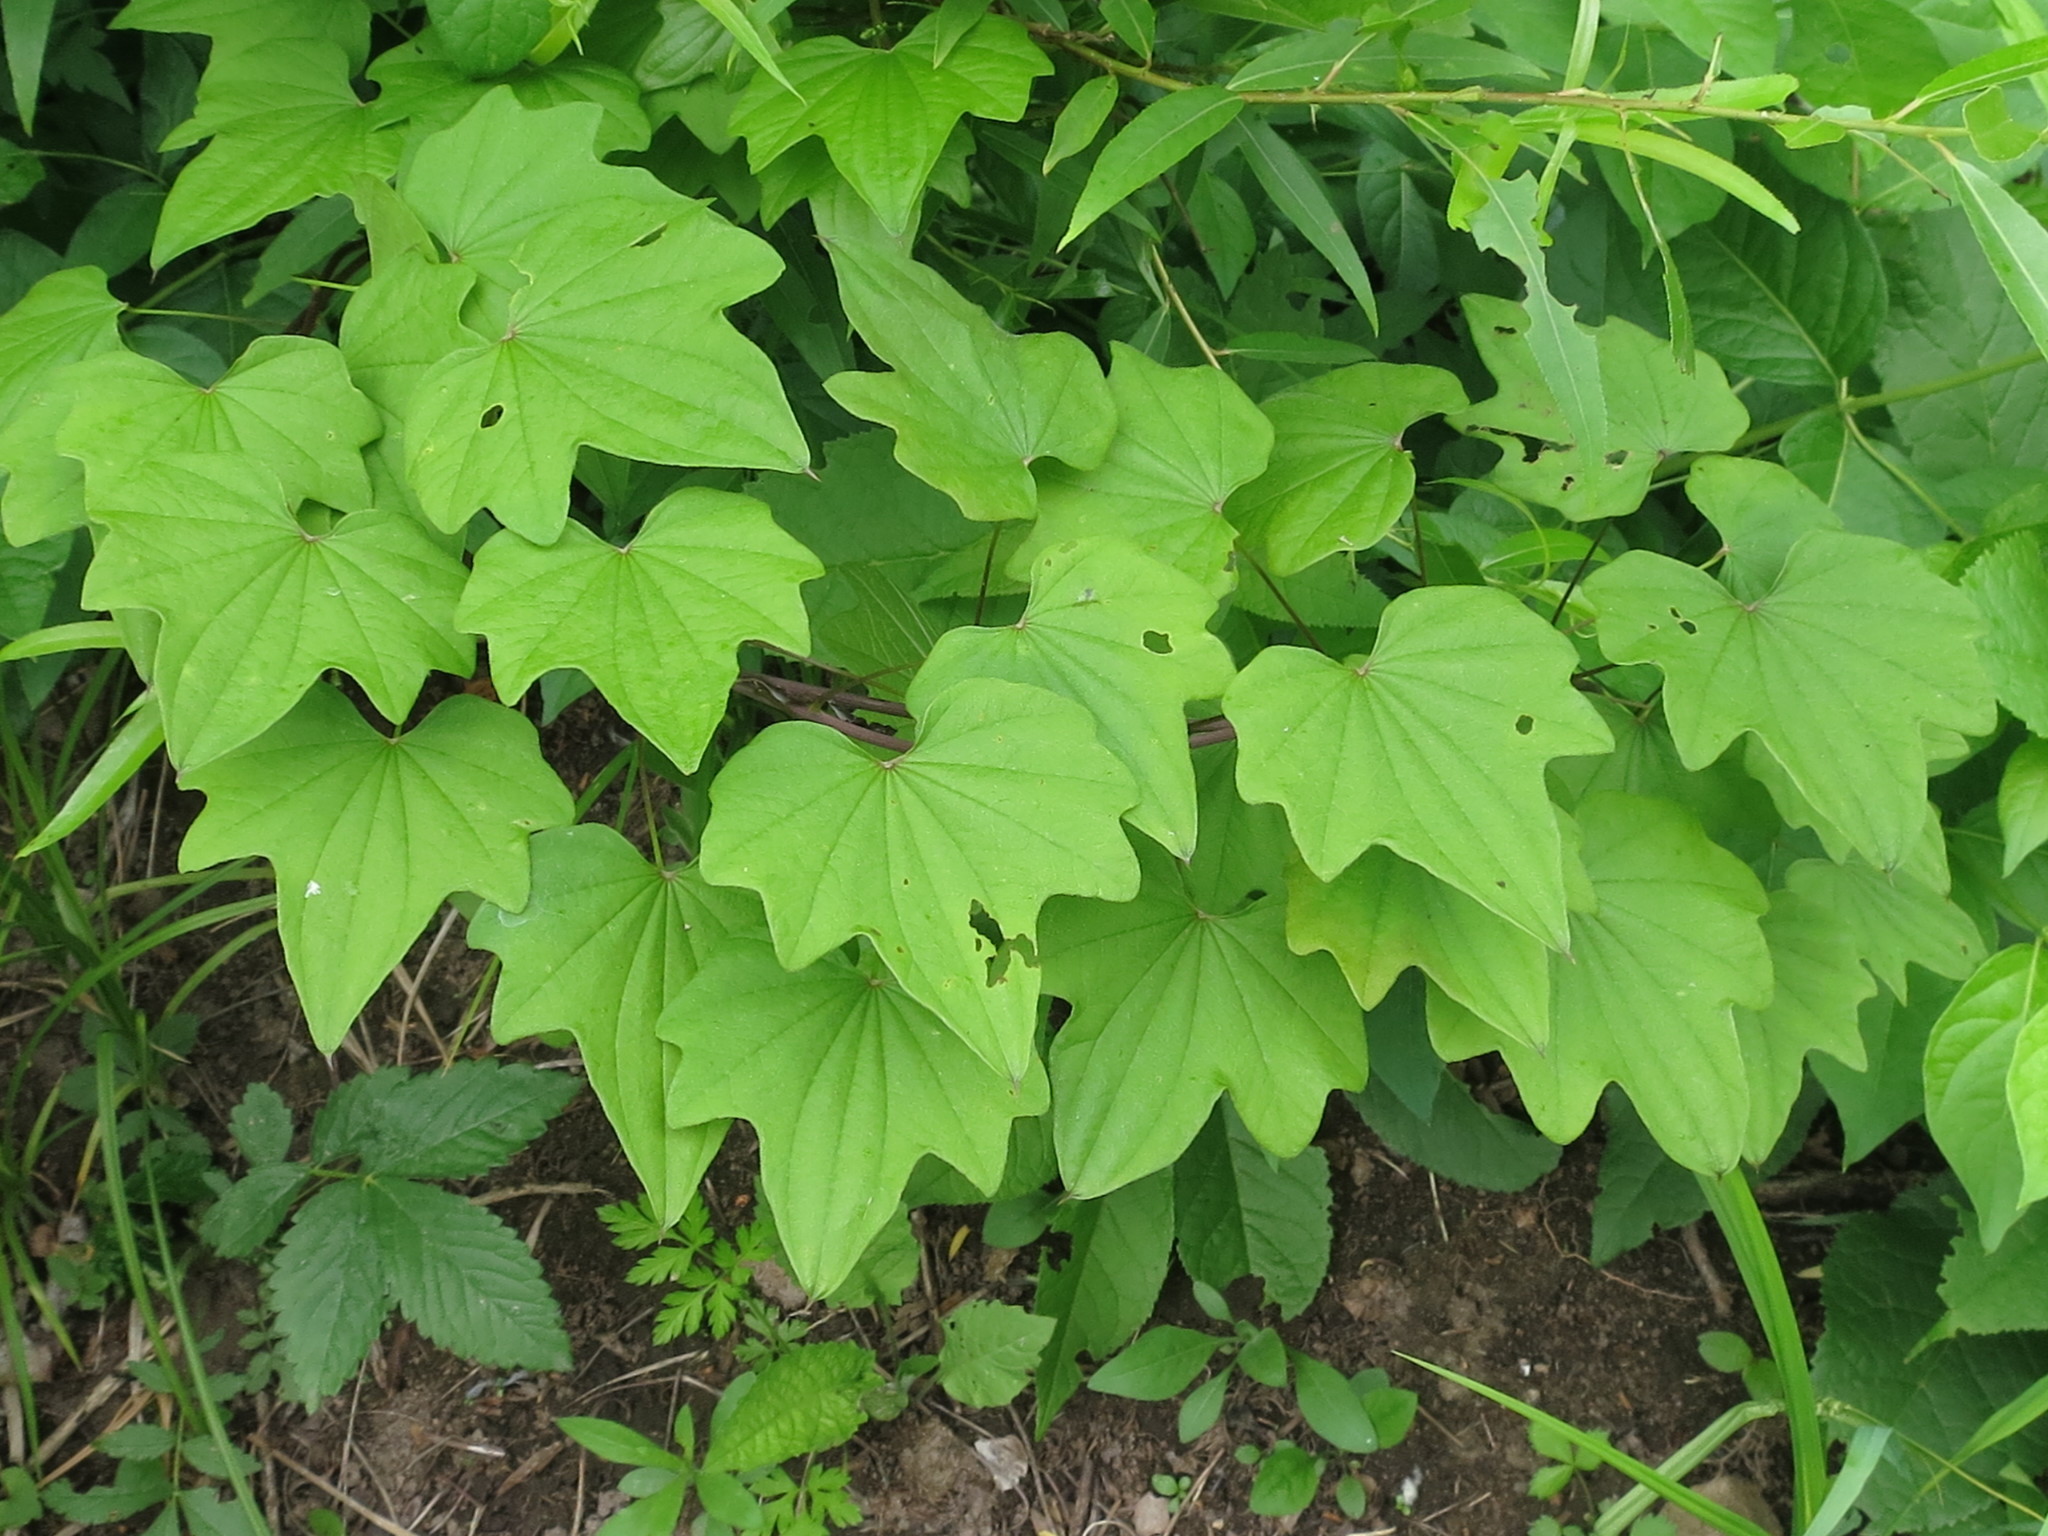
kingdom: Plantae
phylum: Tracheophyta
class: Liliopsida
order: Dioscoreales
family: Dioscoreaceae
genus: Dioscorea
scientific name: Dioscorea nipponica
